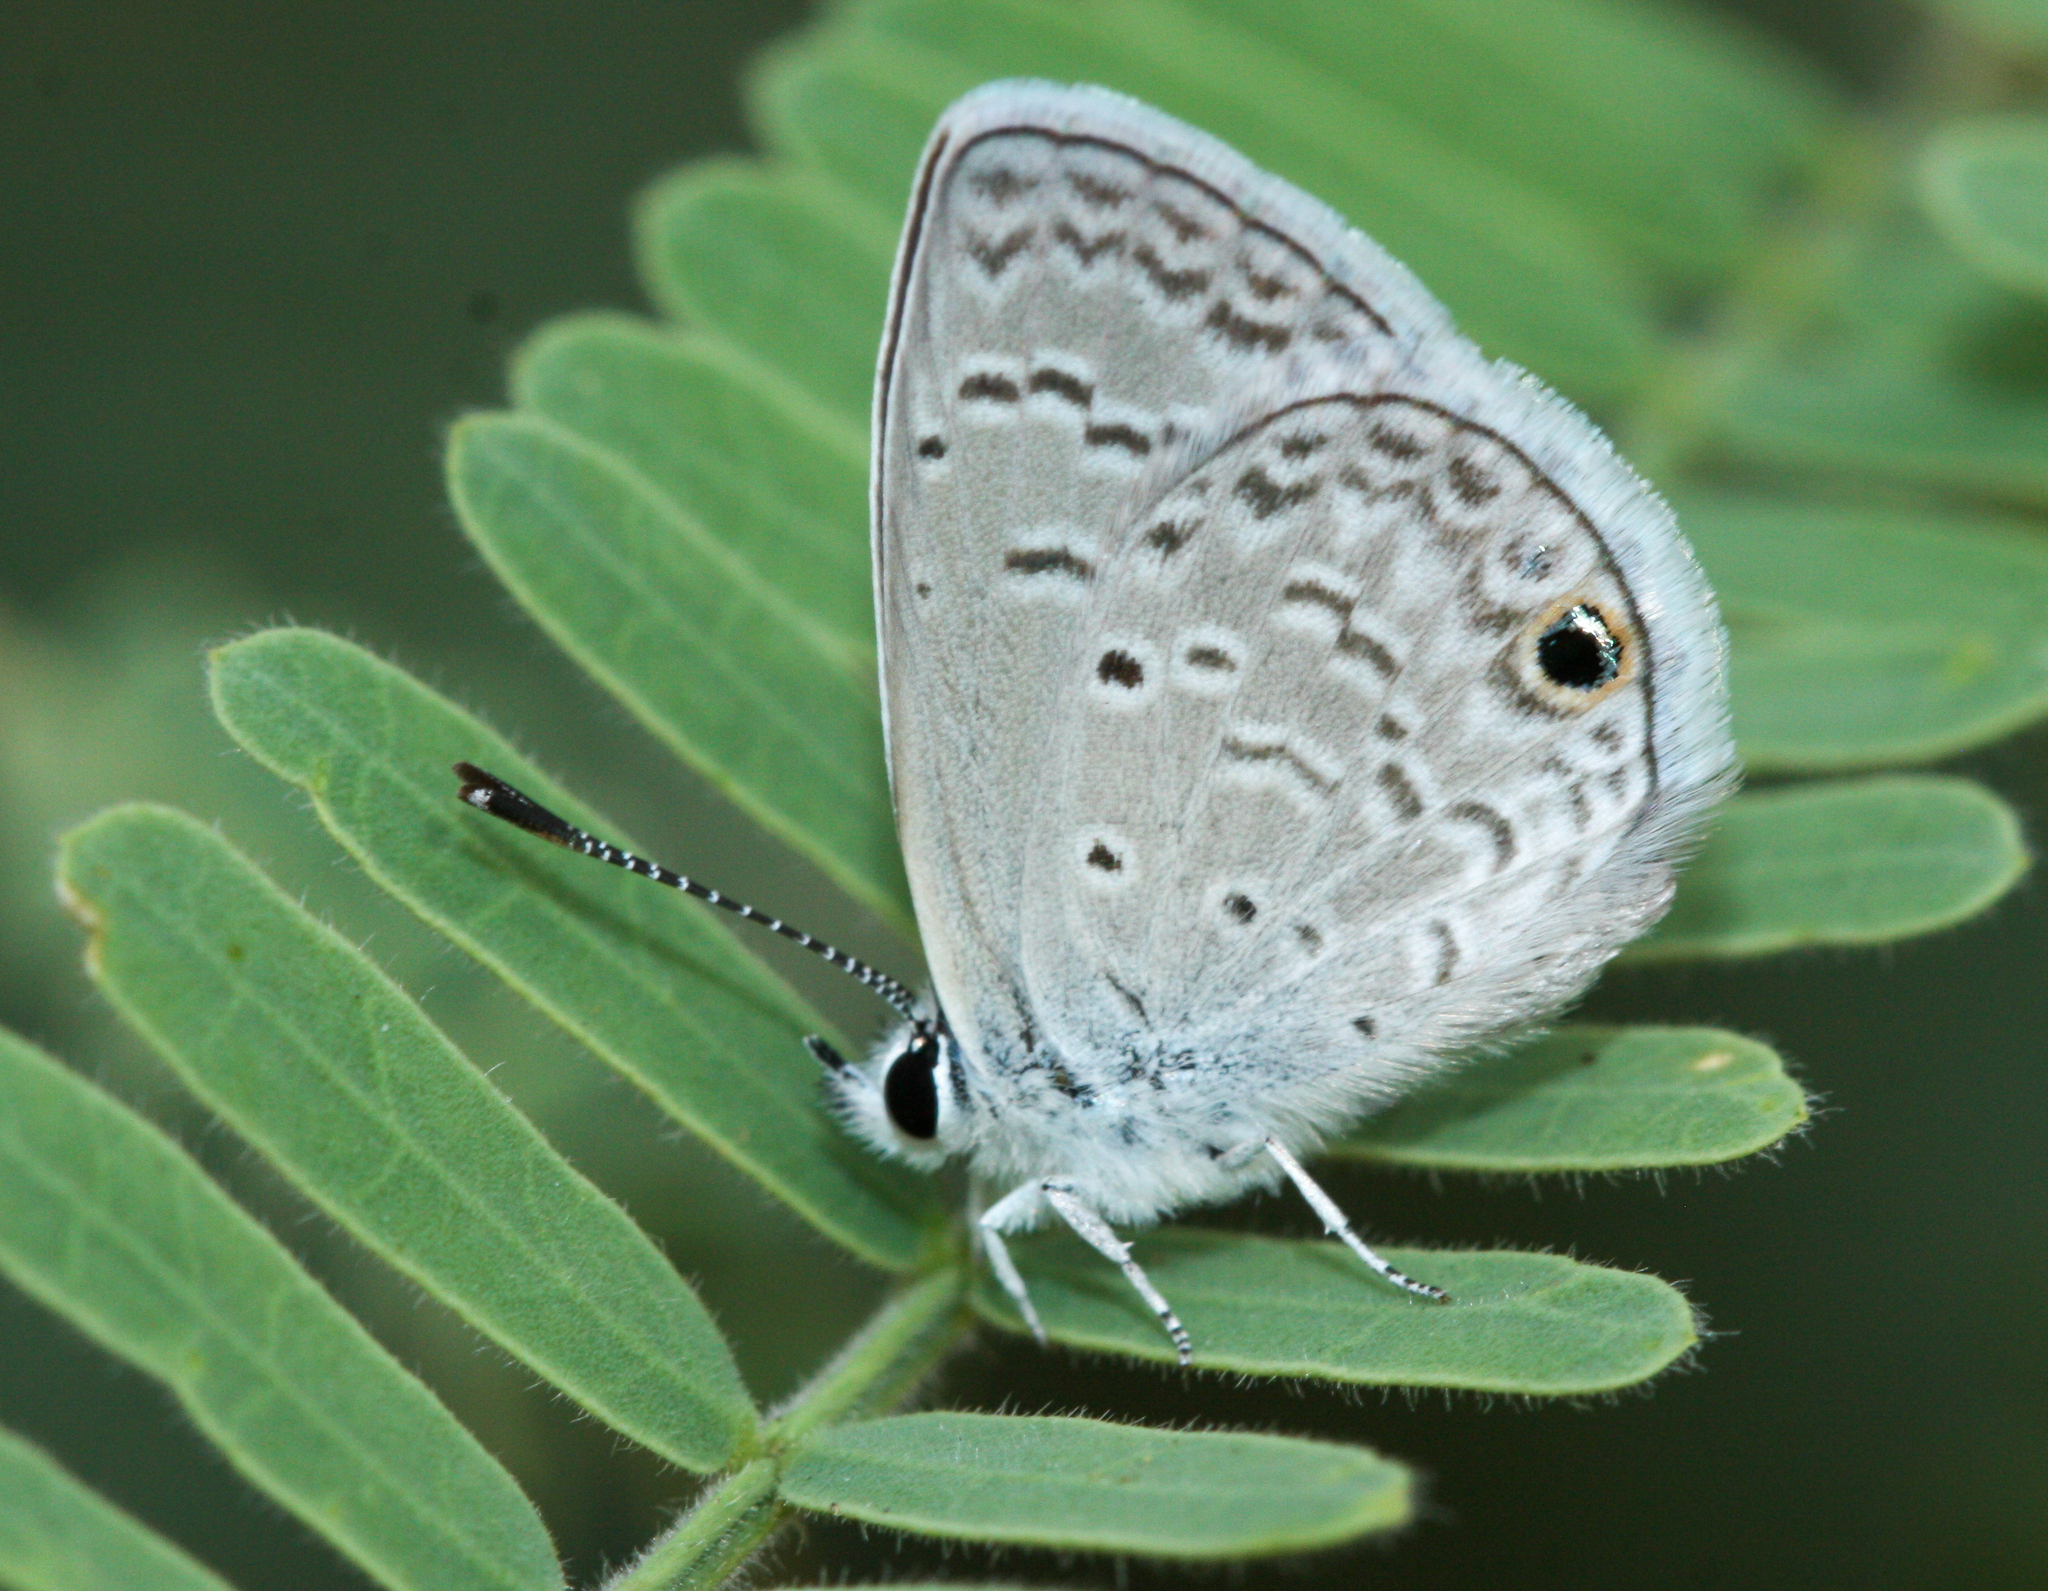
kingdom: Animalia
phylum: Arthropoda
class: Insecta
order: Lepidoptera
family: Lycaenidae
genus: Hemiargus
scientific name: Hemiargus ceraunus
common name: Ceraunus blue
